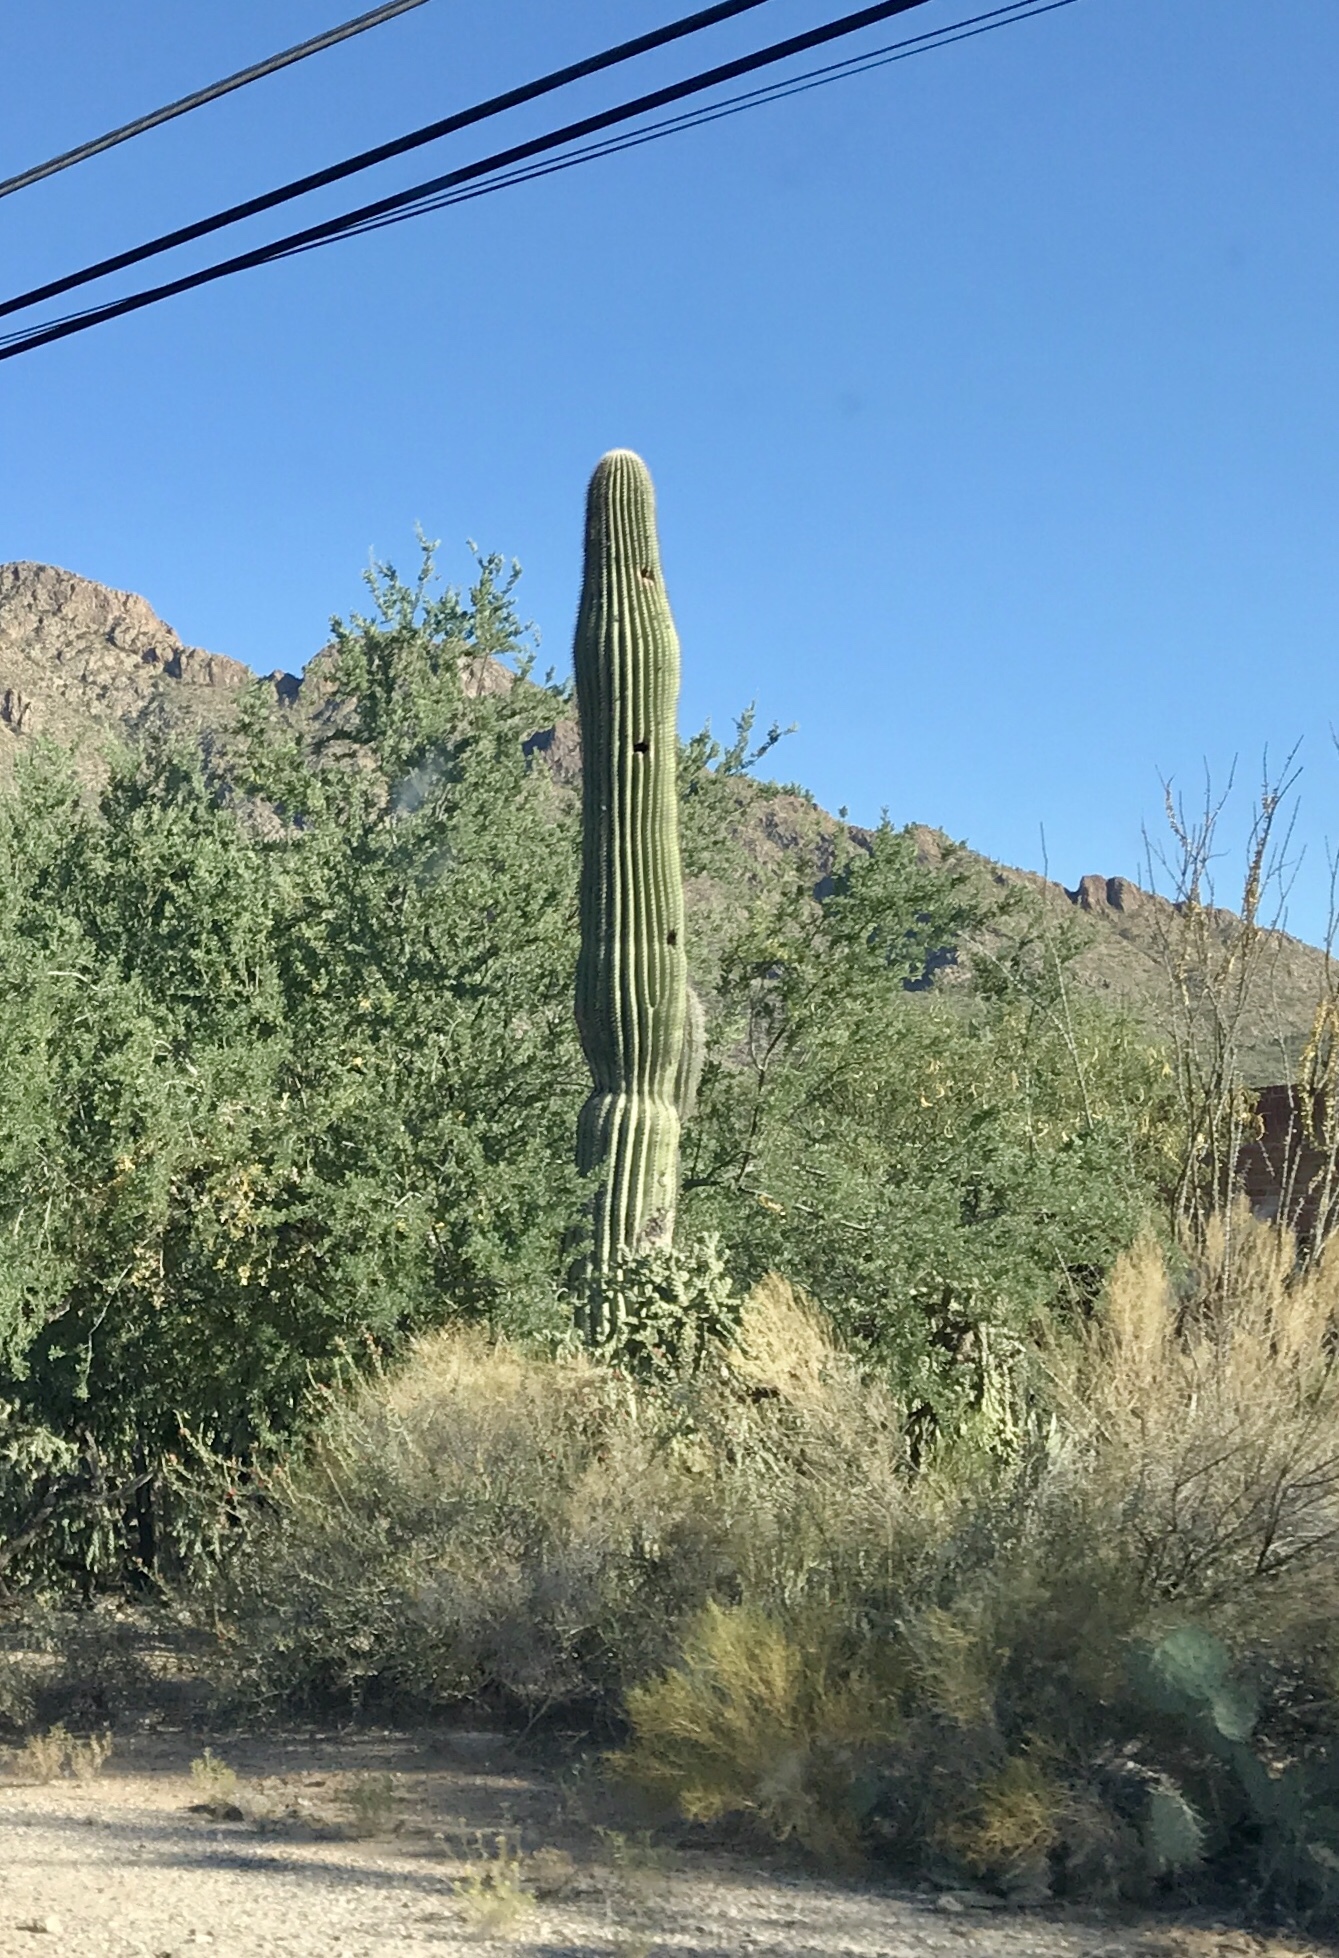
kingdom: Plantae
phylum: Tracheophyta
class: Magnoliopsida
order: Caryophyllales
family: Cactaceae
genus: Carnegiea
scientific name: Carnegiea gigantea
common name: Saguaro
